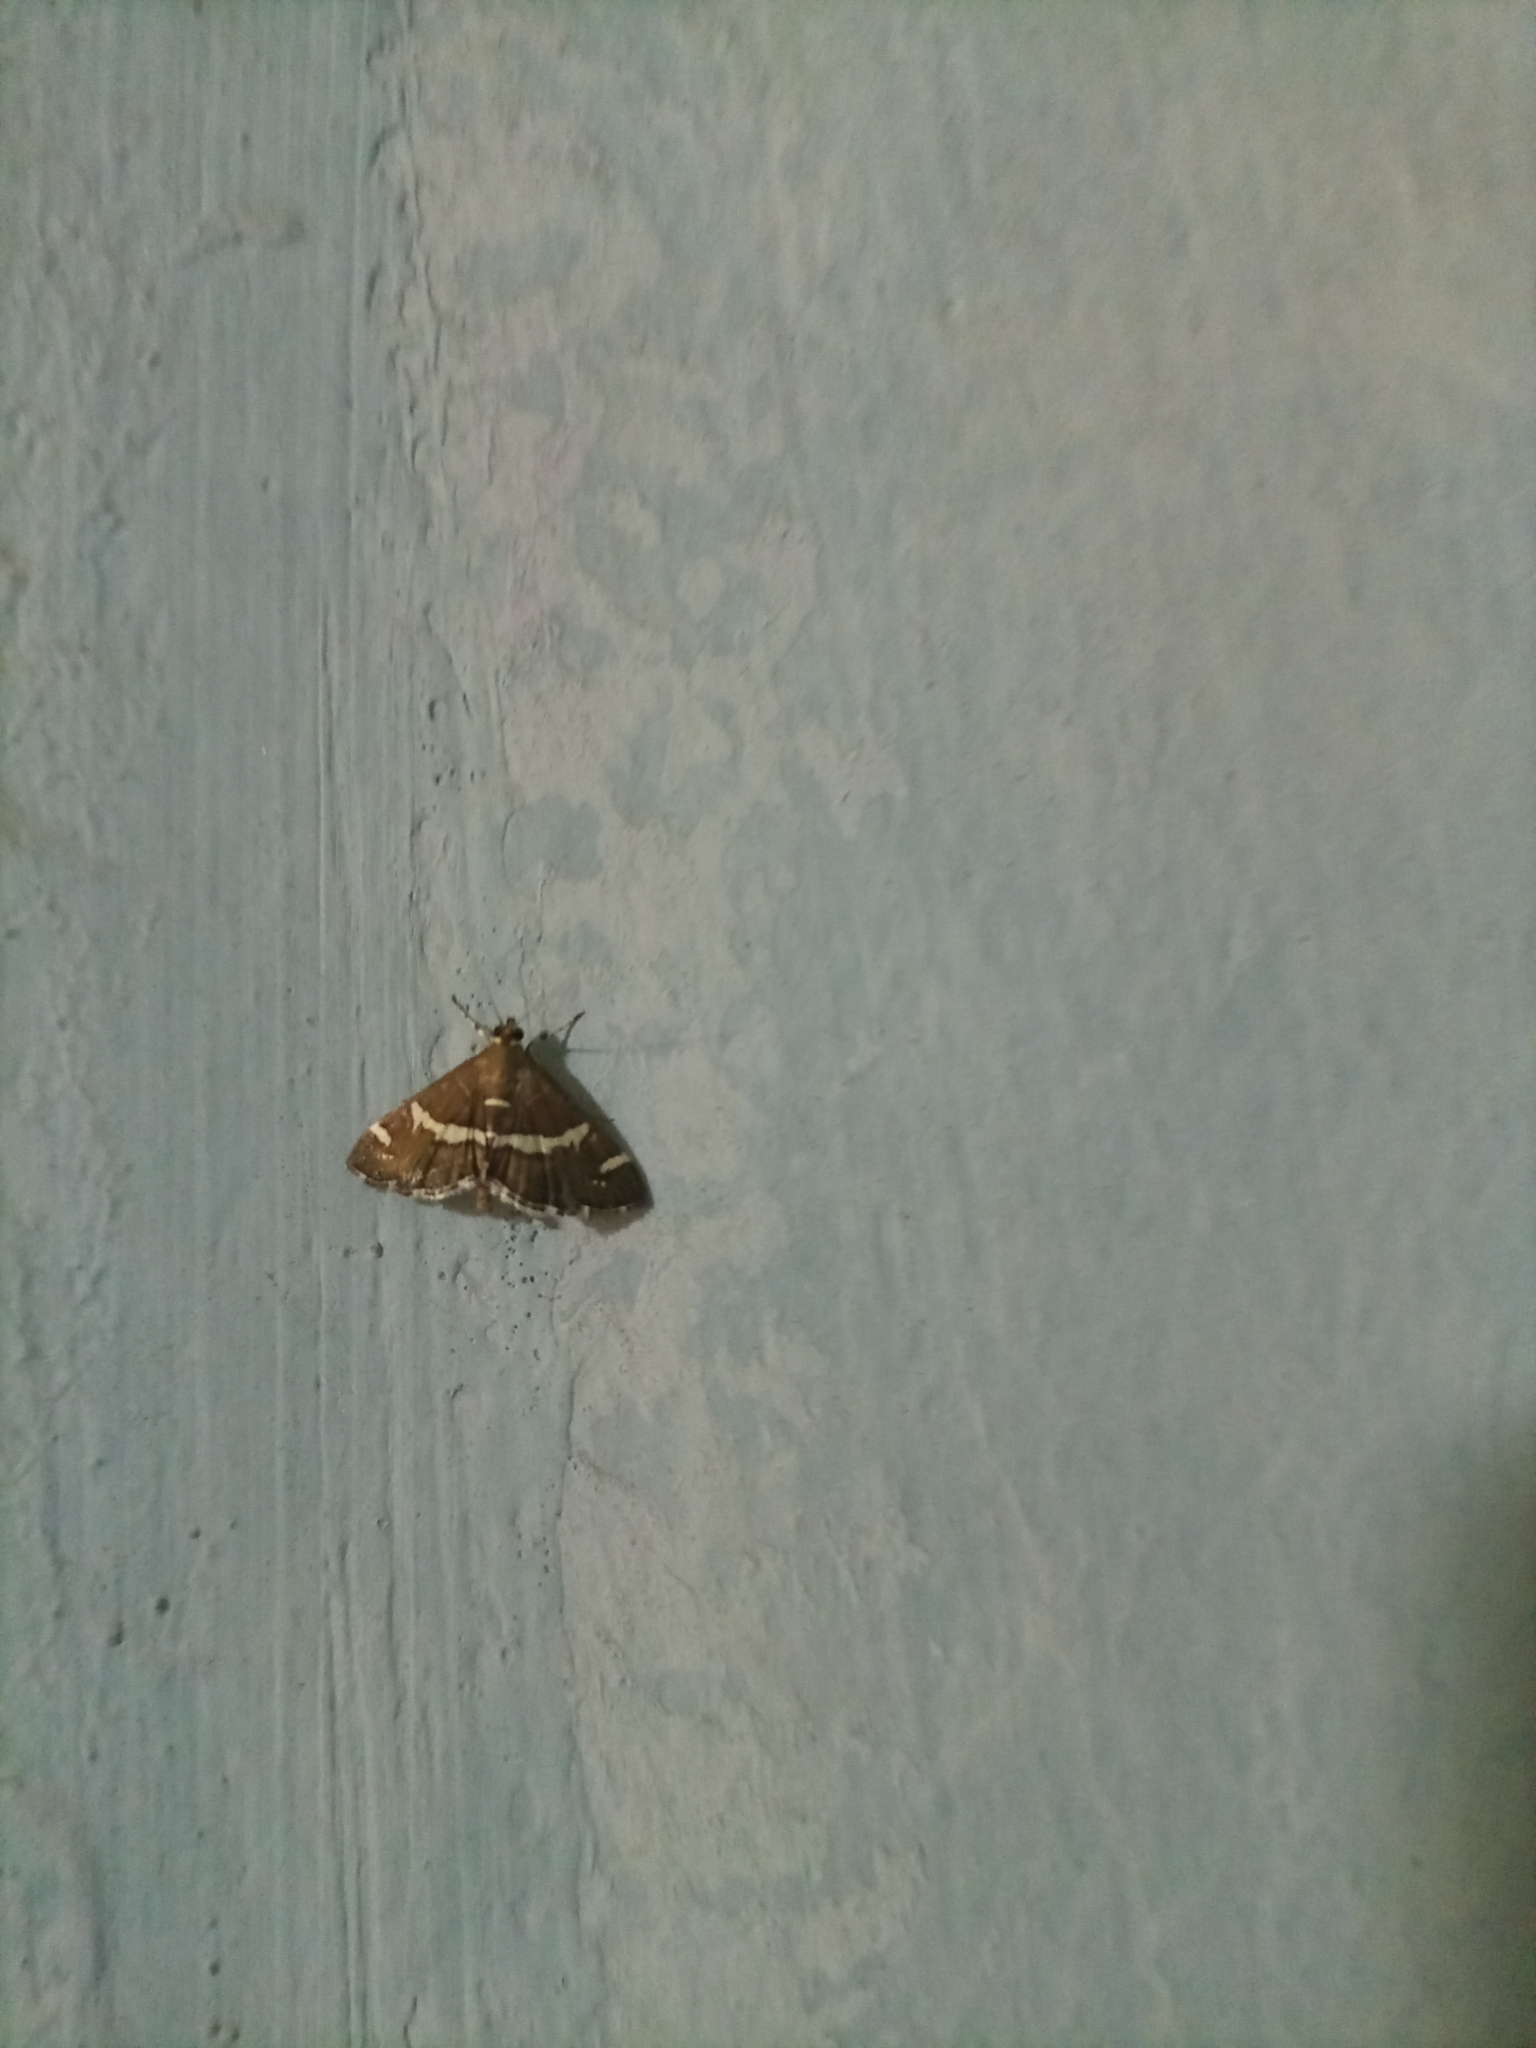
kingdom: Animalia
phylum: Arthropoda
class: Insecta
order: Lepidoptera
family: Crambidae
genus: Spoladea
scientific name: Spoladea recurvalis
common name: Beet webworm moth
